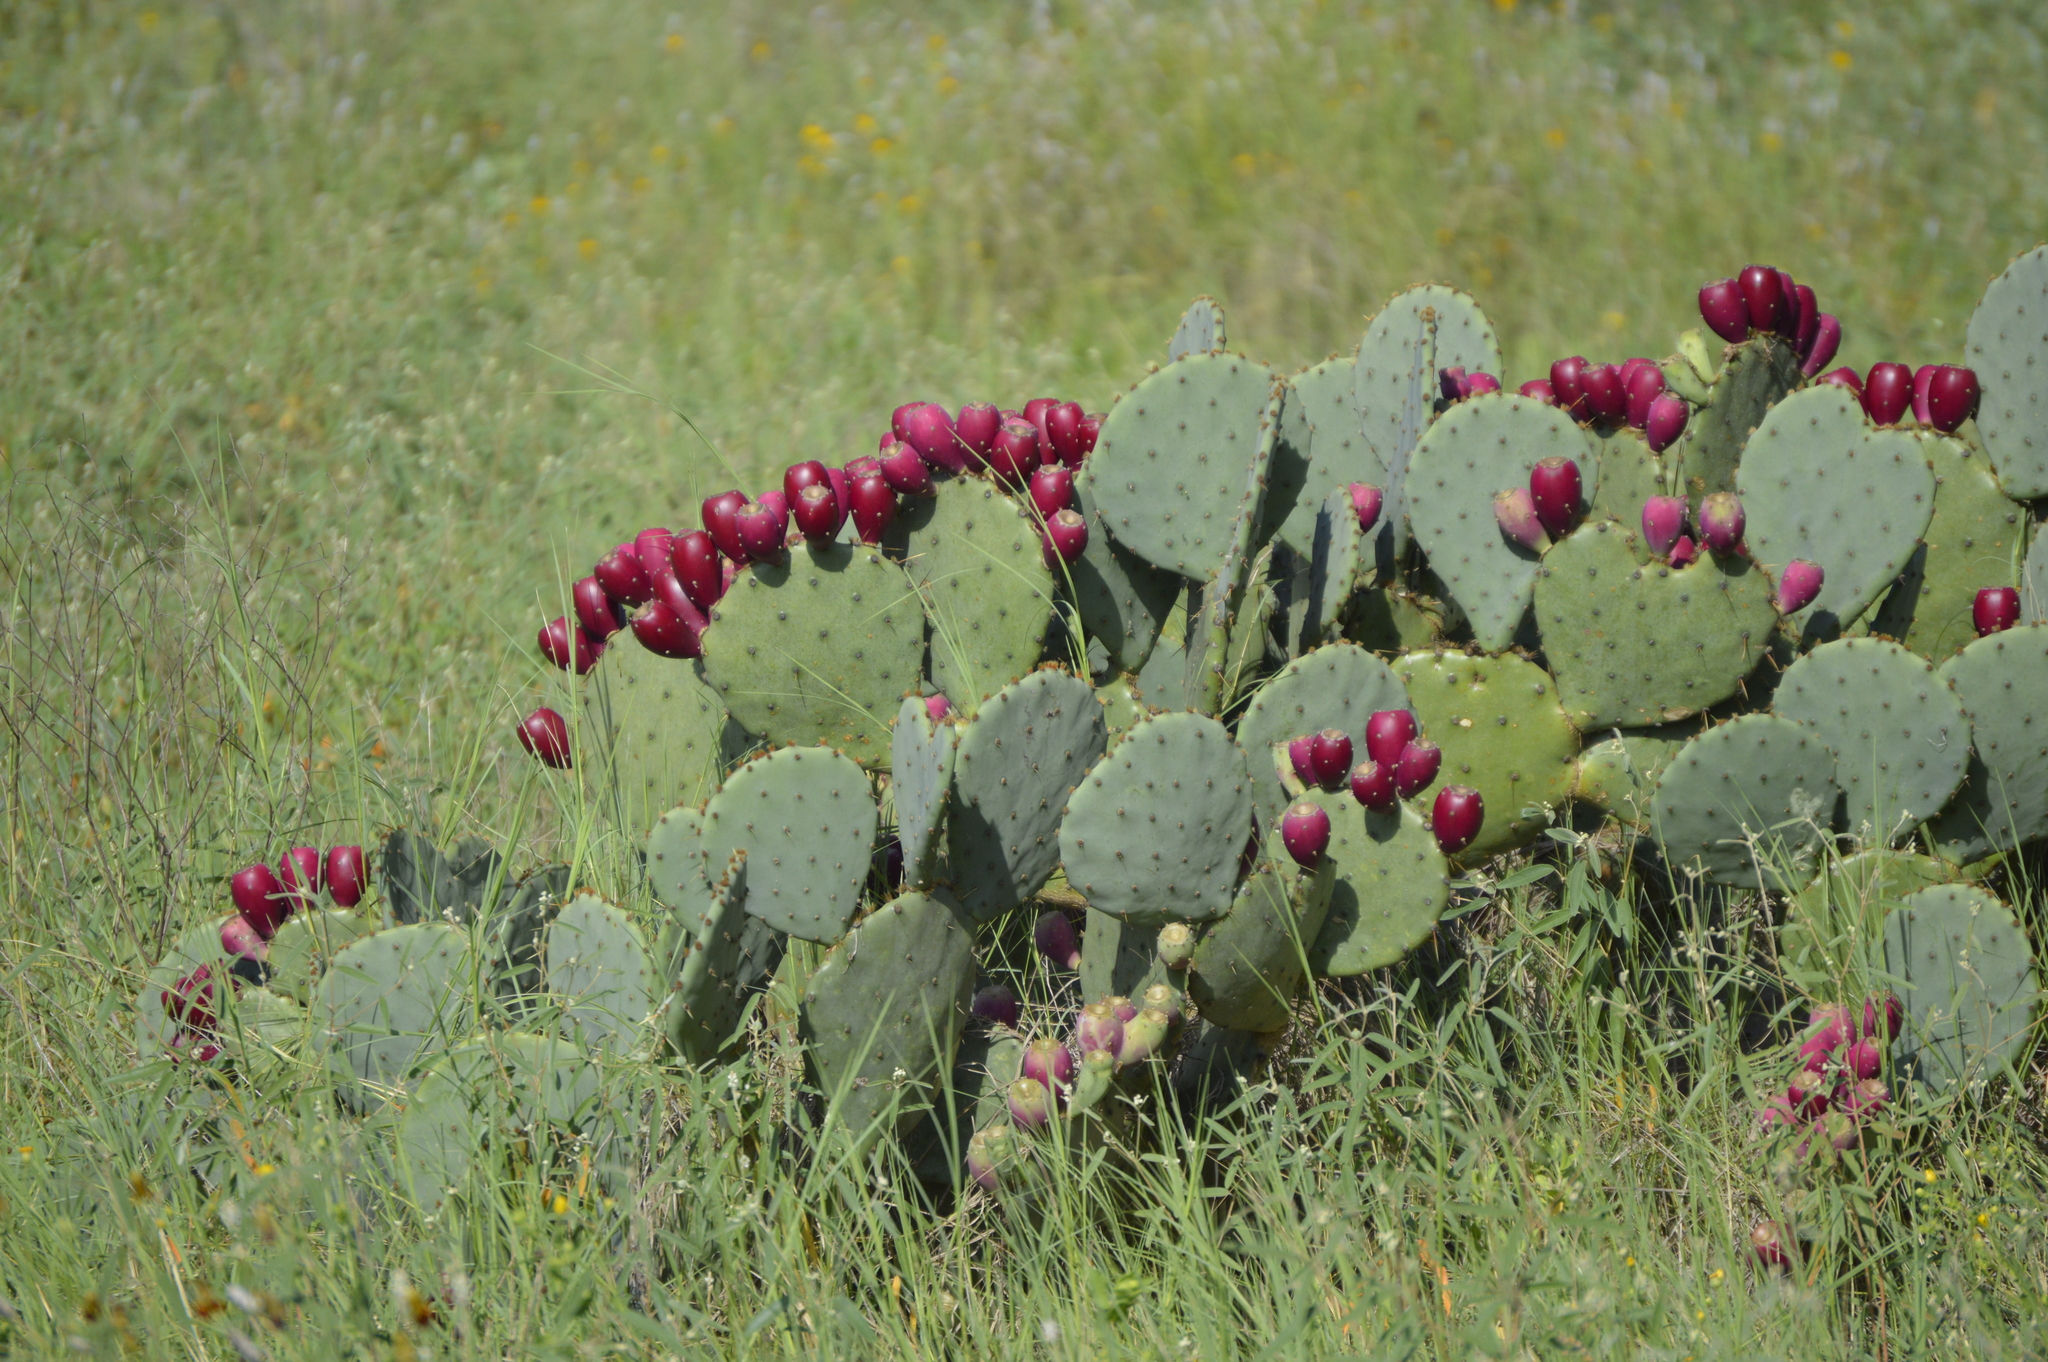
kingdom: Plantae
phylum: Tracheophyta
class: Magnoliopsida
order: Caryophyllales
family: Cactaceae
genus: Opuntia
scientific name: Opuntia engelmannii
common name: Cactus-apple
